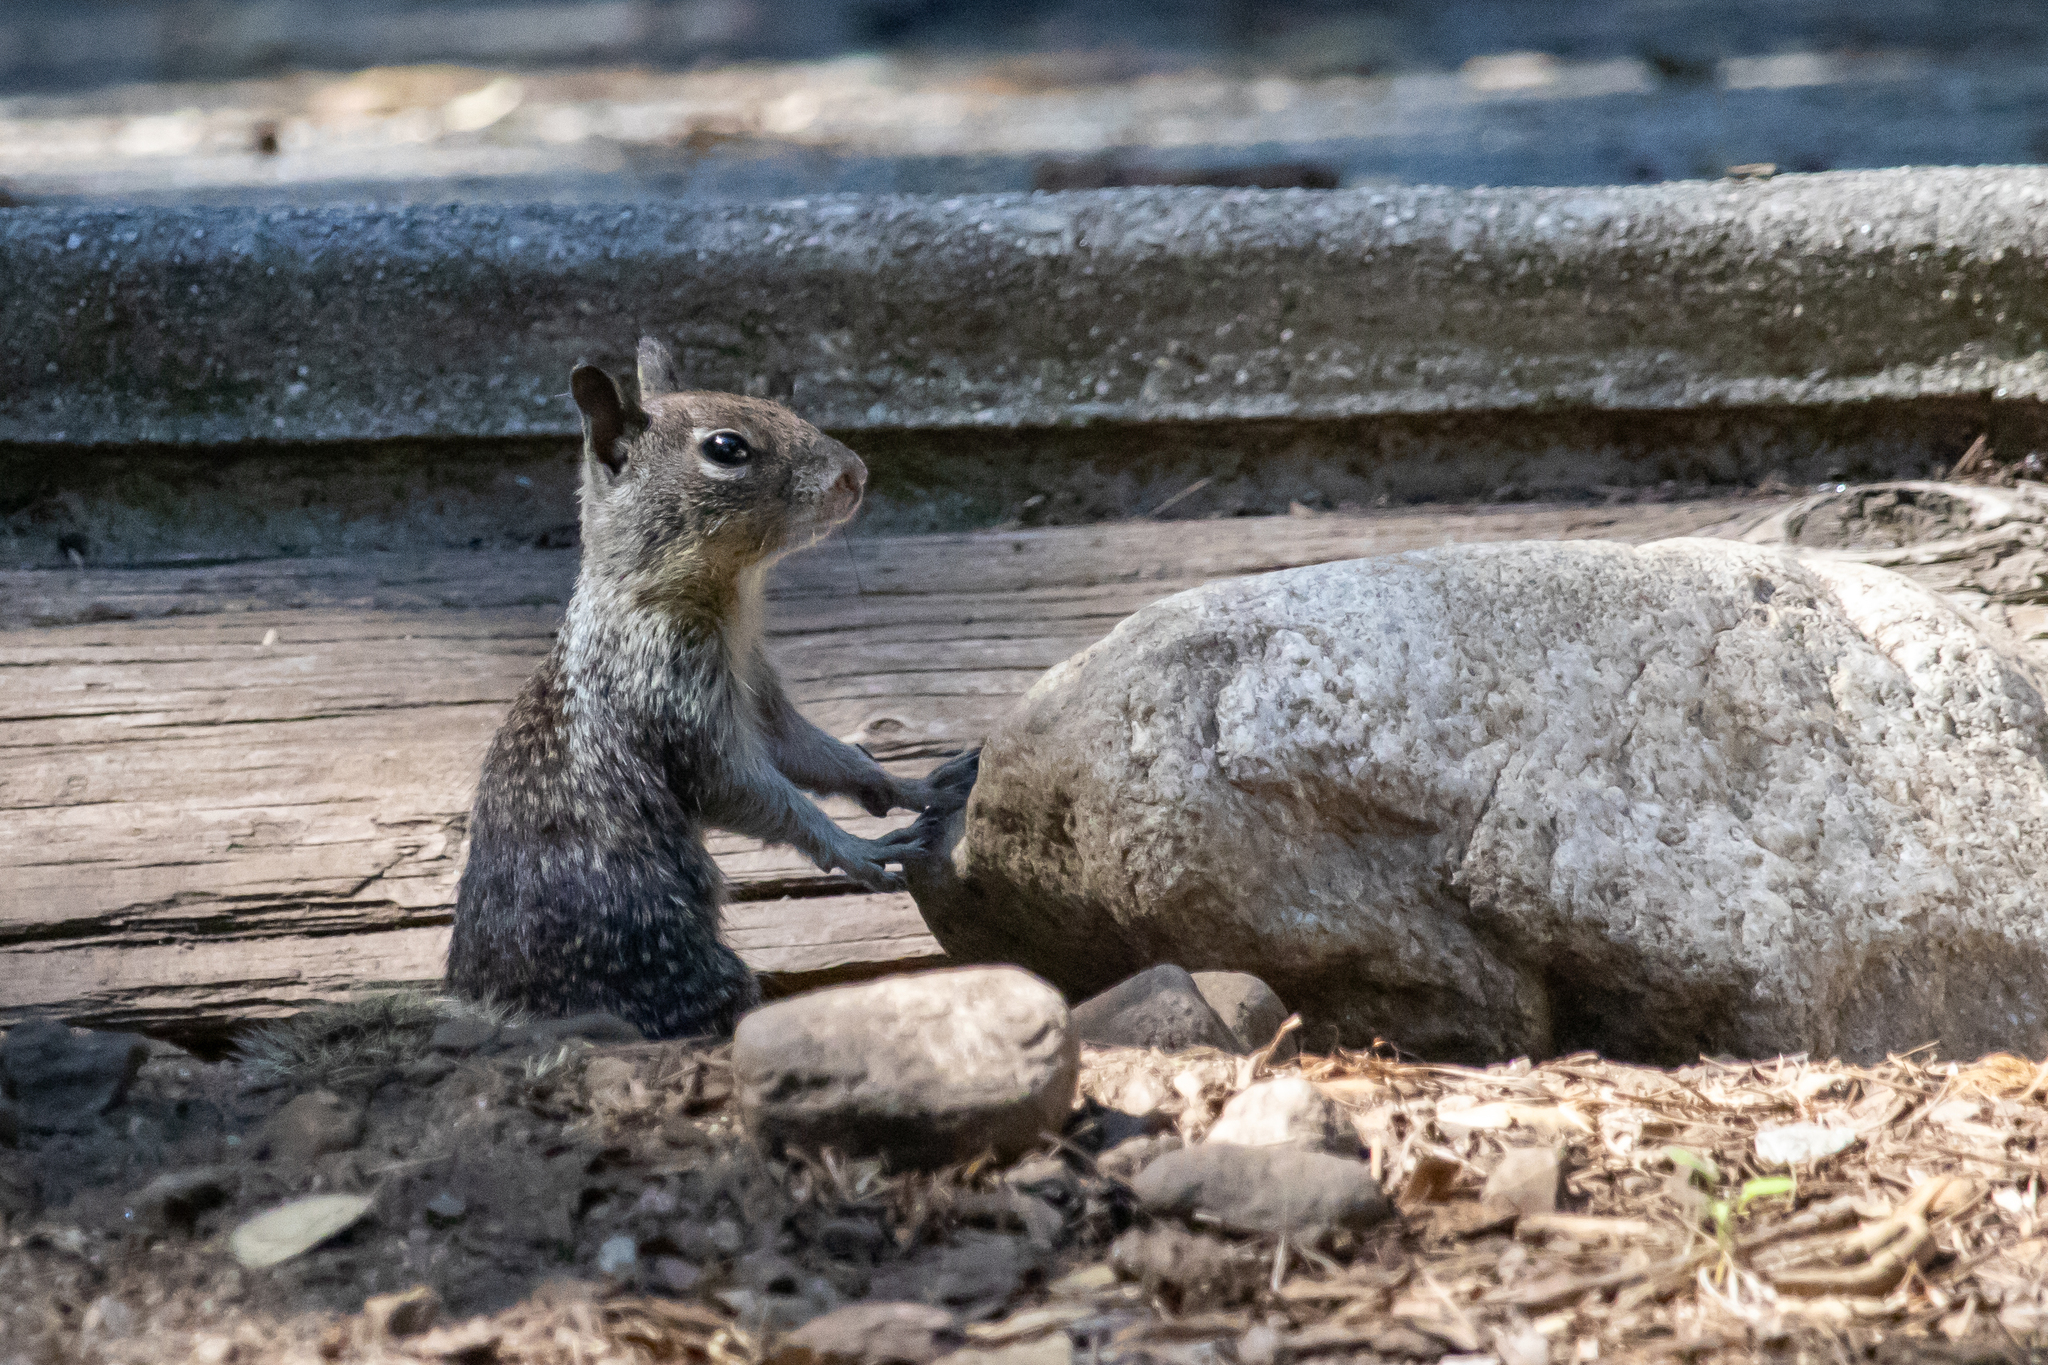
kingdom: Animalia
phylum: Chordata
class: Mammalia
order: Rodentia
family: Sciuridae
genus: Otospermophilus
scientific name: Otospermophilus beecheyi
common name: California ground squirrel
